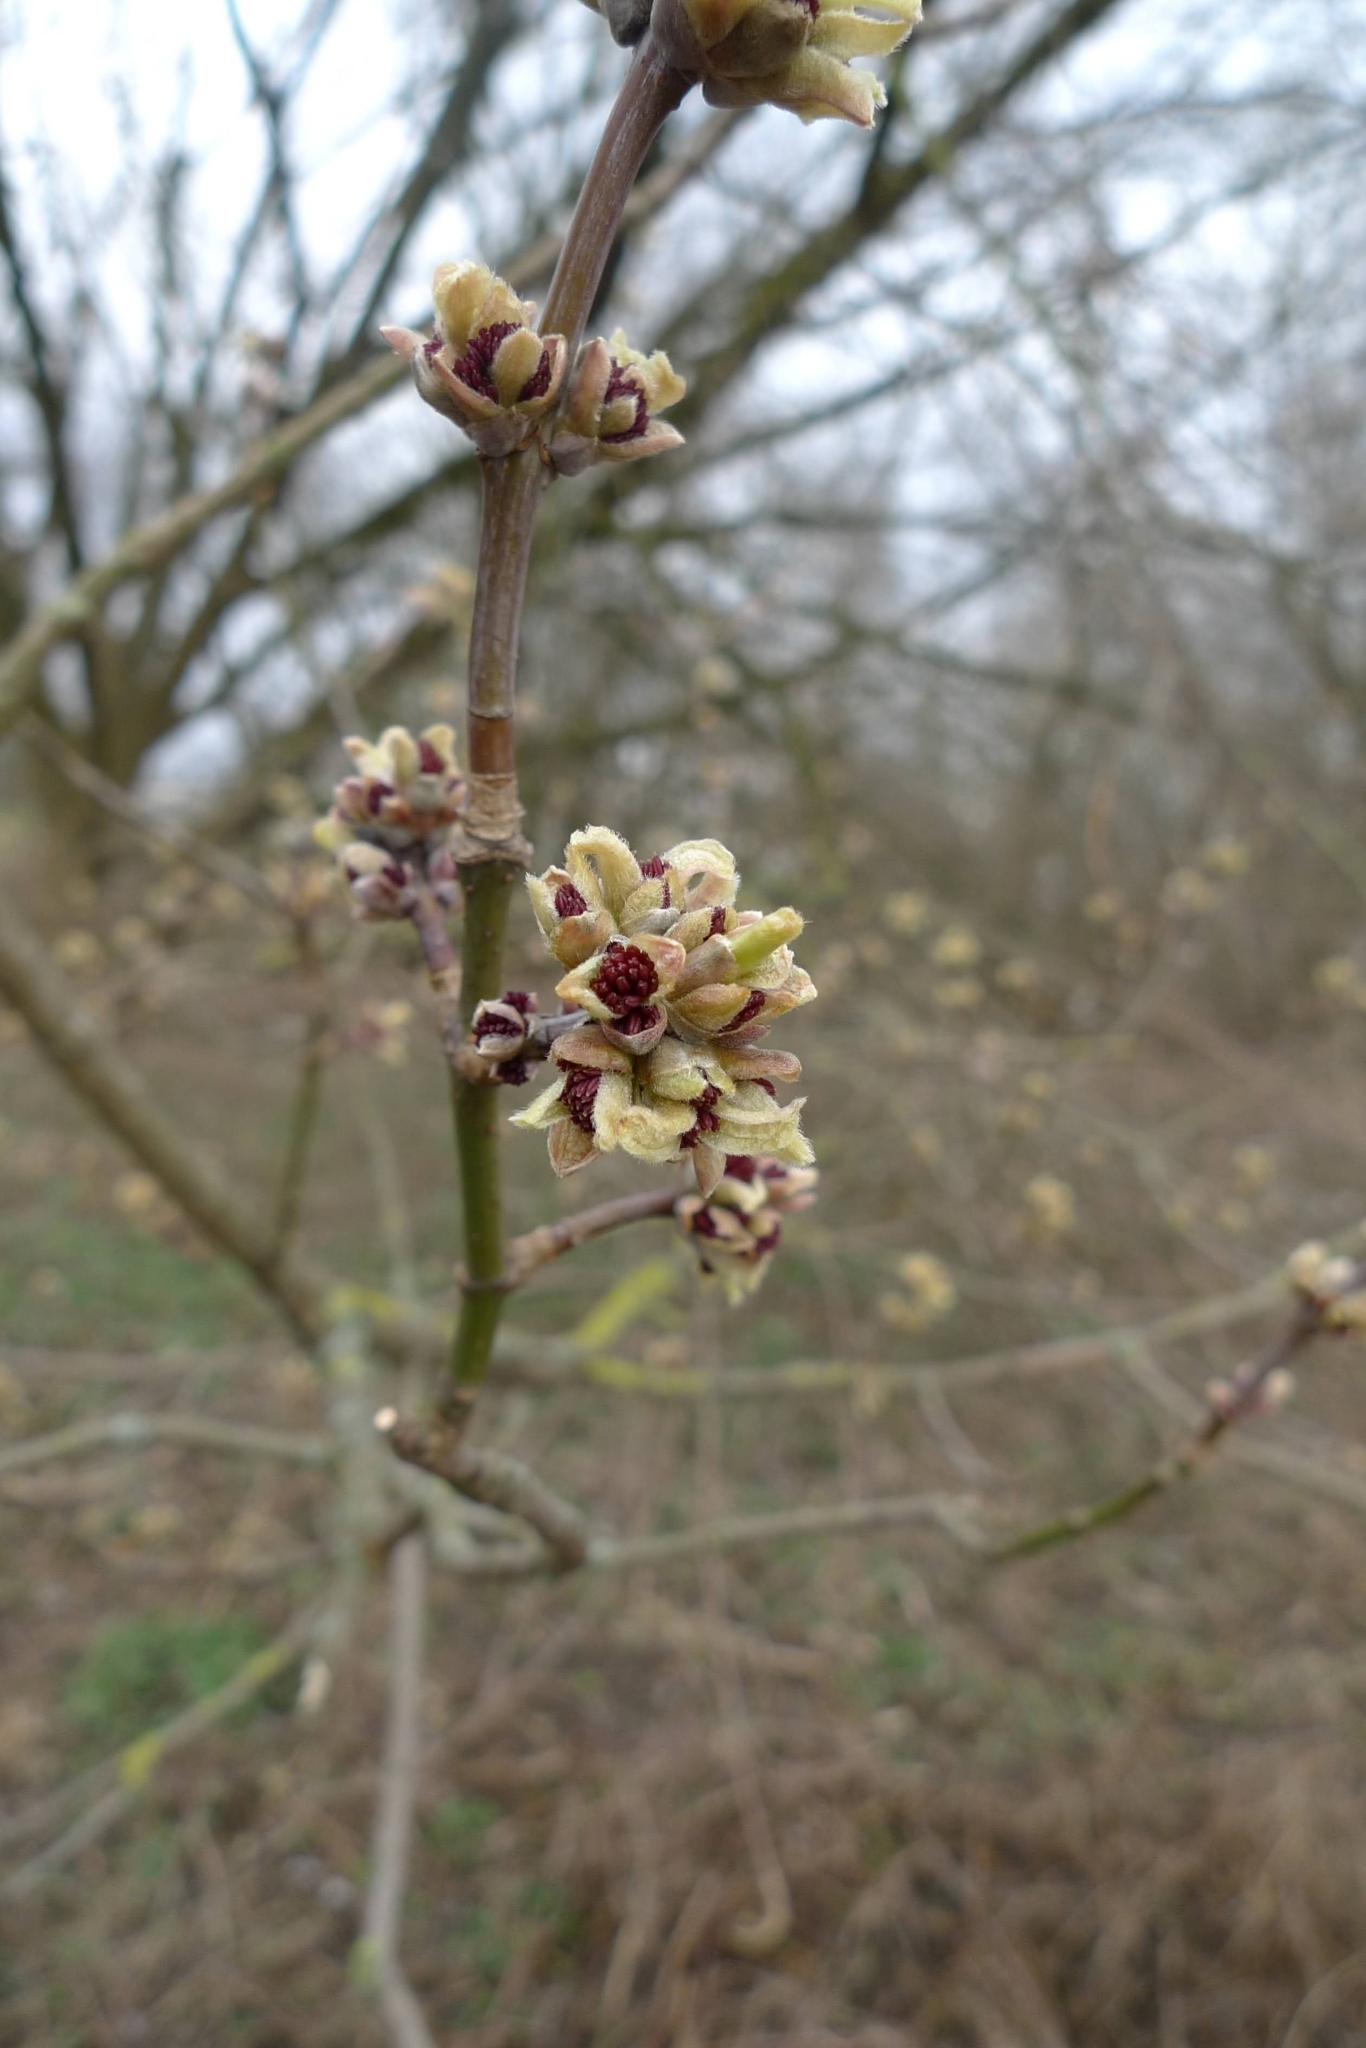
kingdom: Plantae
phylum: Tracheophyta
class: Magnoliopsida
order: Sapindales
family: Sapindaceae
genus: Acer
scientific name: Acer negundo
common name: Ashleaf maple
